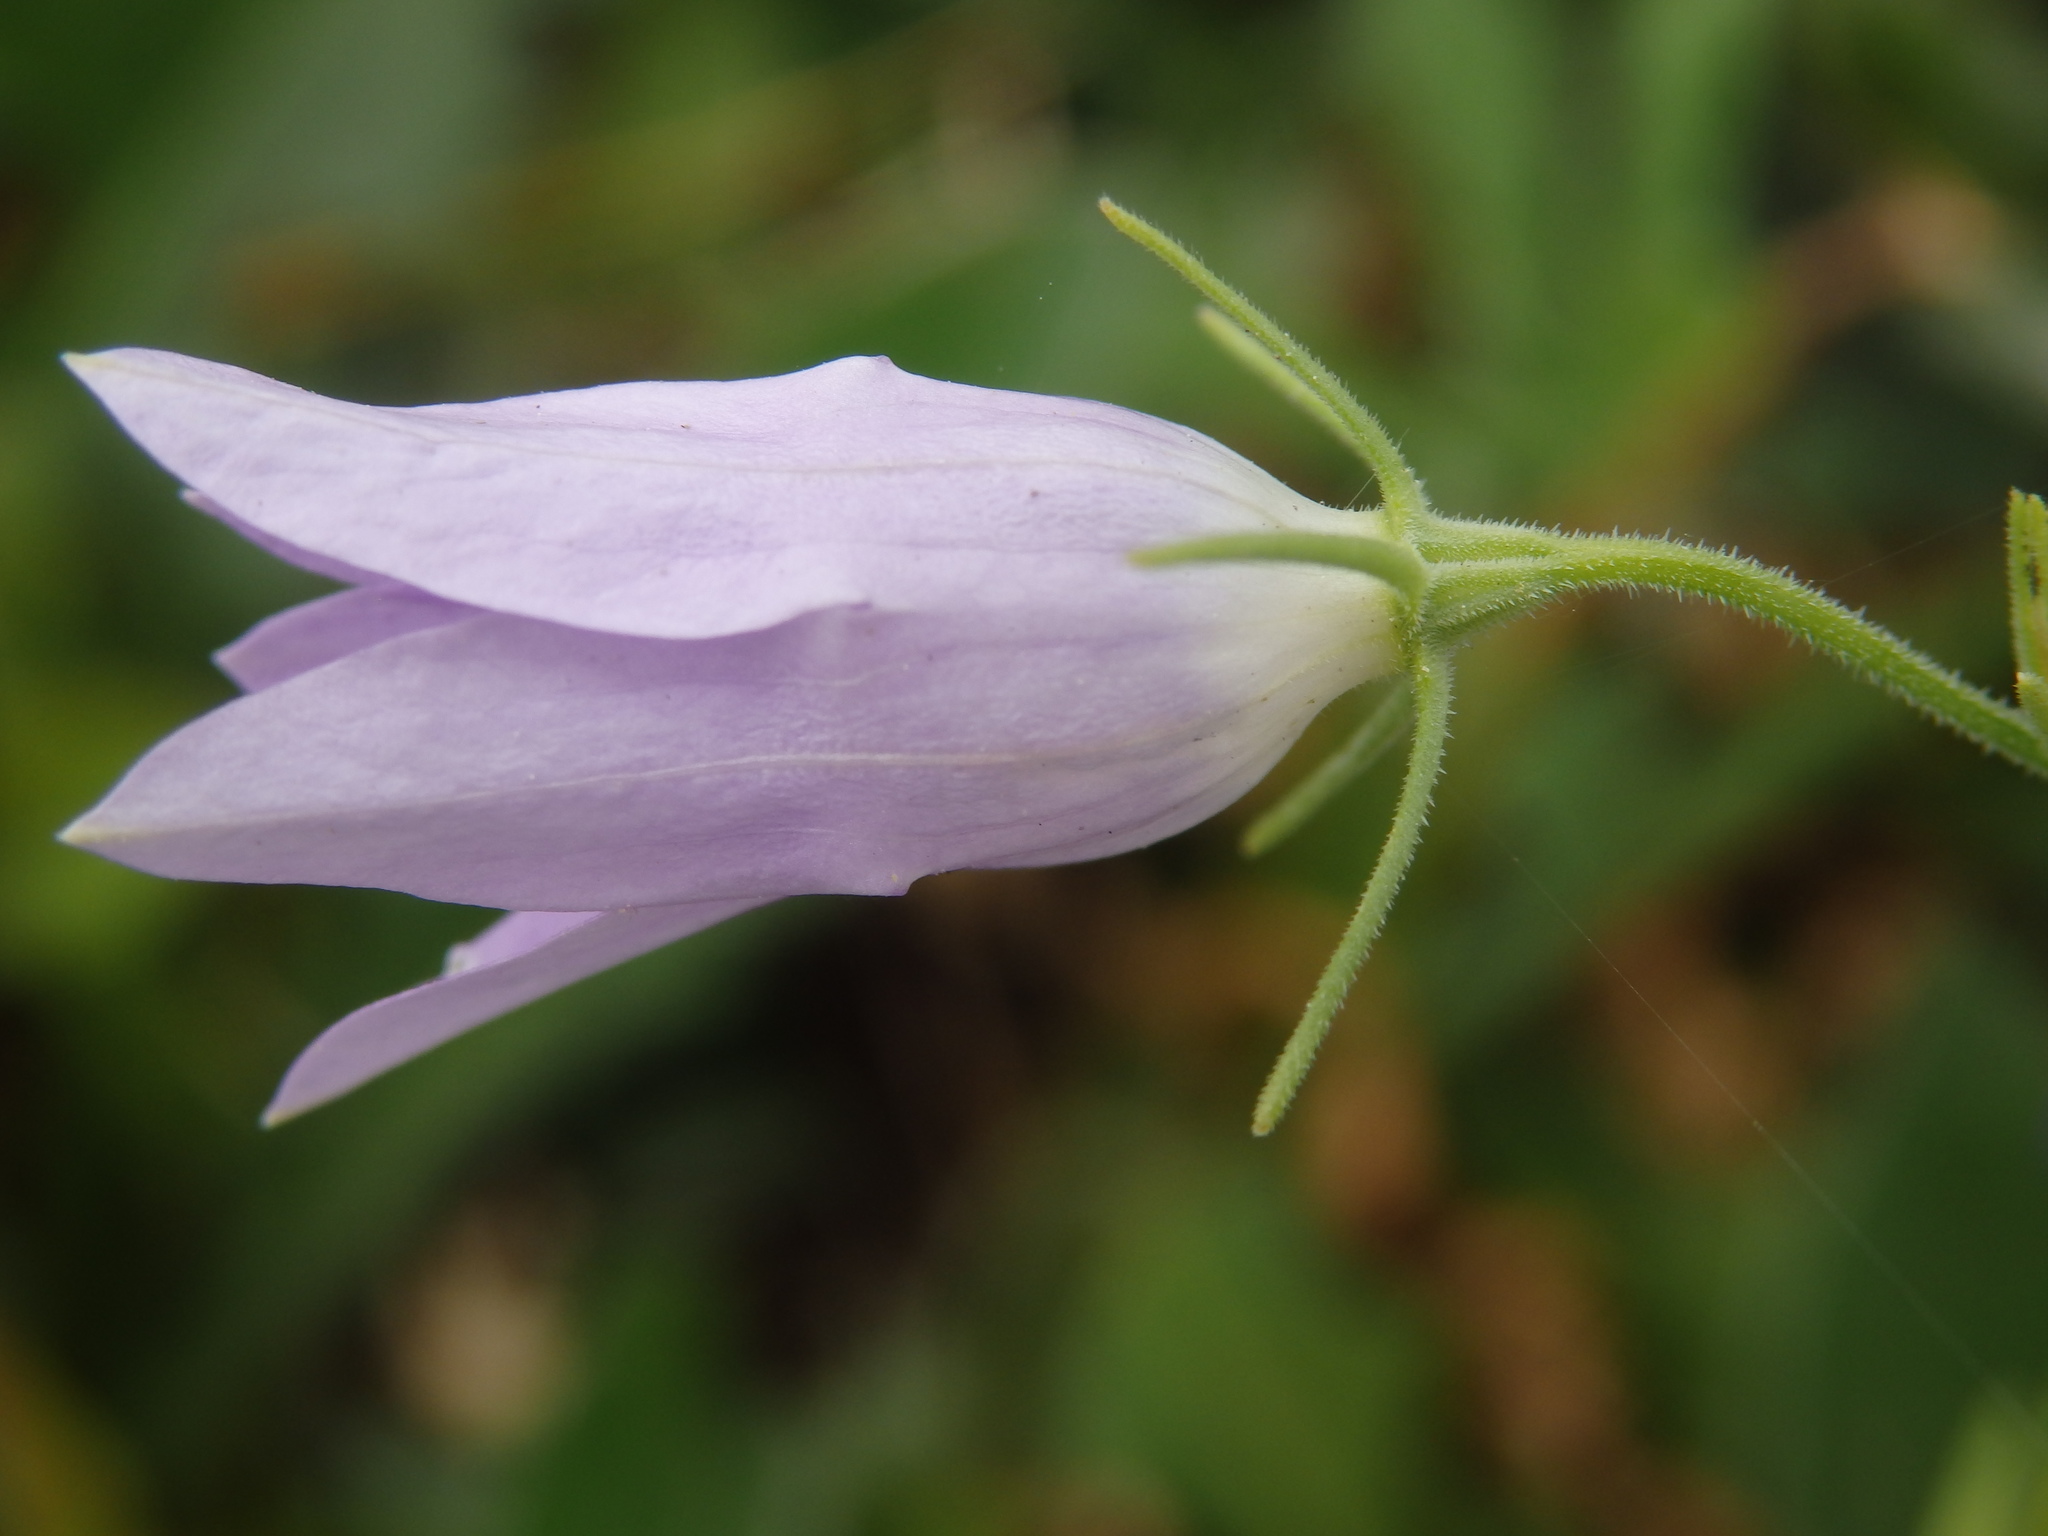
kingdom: Plantae
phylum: Tracheophyta
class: Magnoliopsida
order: Asterales
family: Campanulaceae
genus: Campanula
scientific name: Campanula rapunculus
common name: Rampion bellflower
